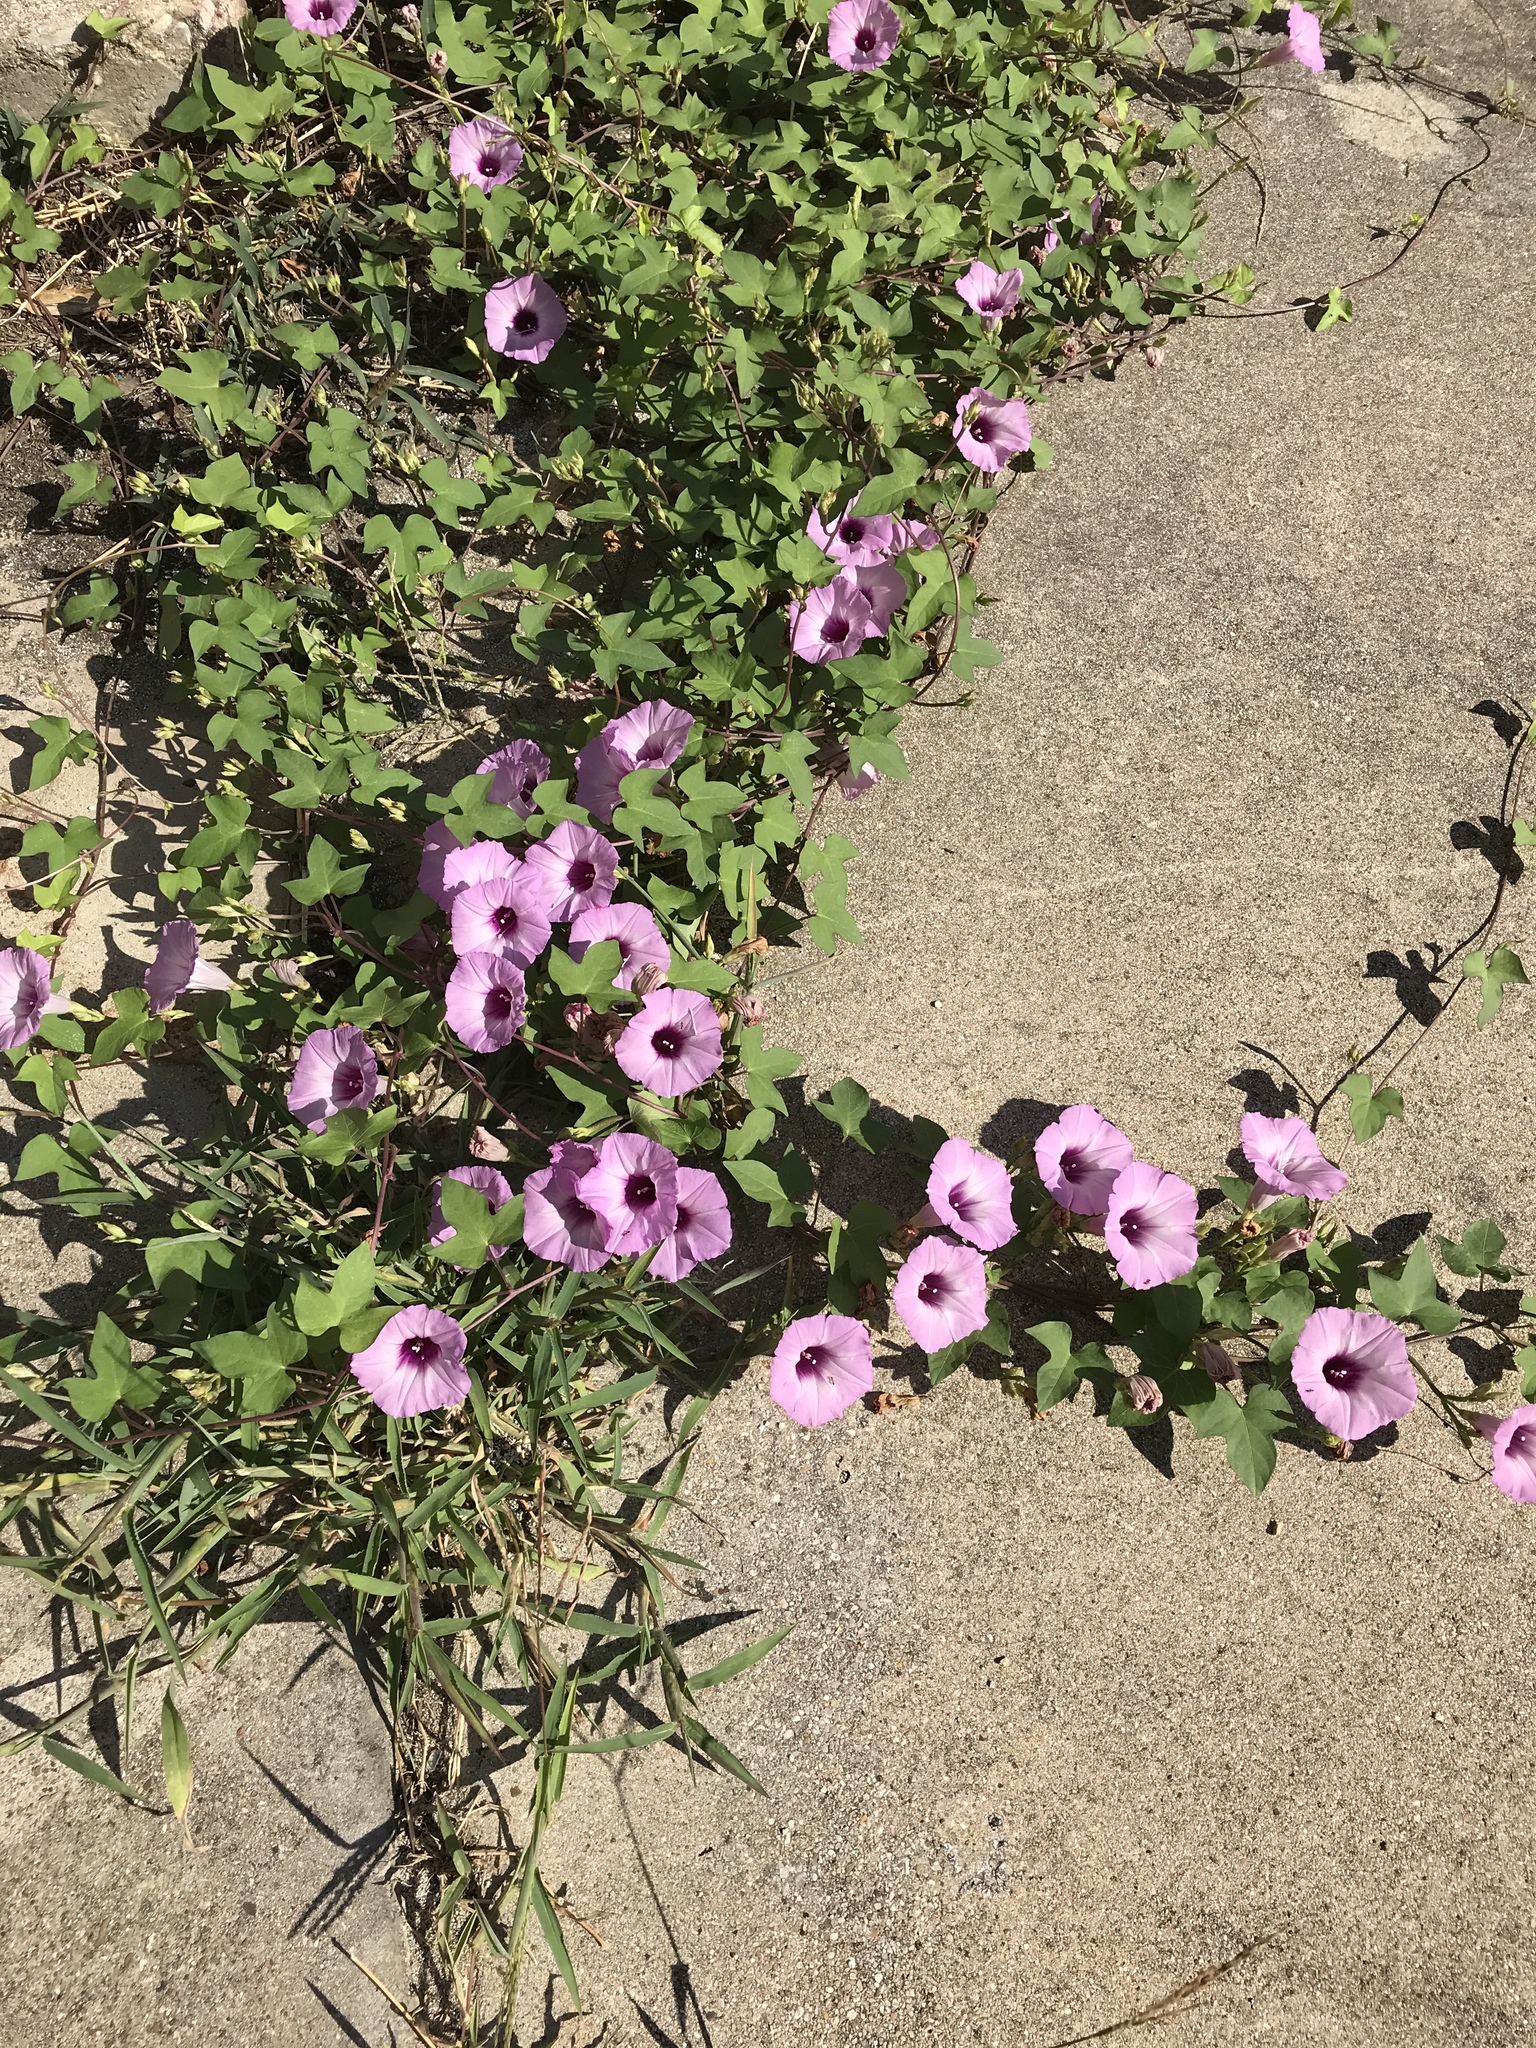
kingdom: Plantae
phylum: Tracheophyta
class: Magnoliopsida
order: Solanales
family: Convolvulaceae
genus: Ipomoea
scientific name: Ipomoea cordatotriloba
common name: Cotton morning glory
